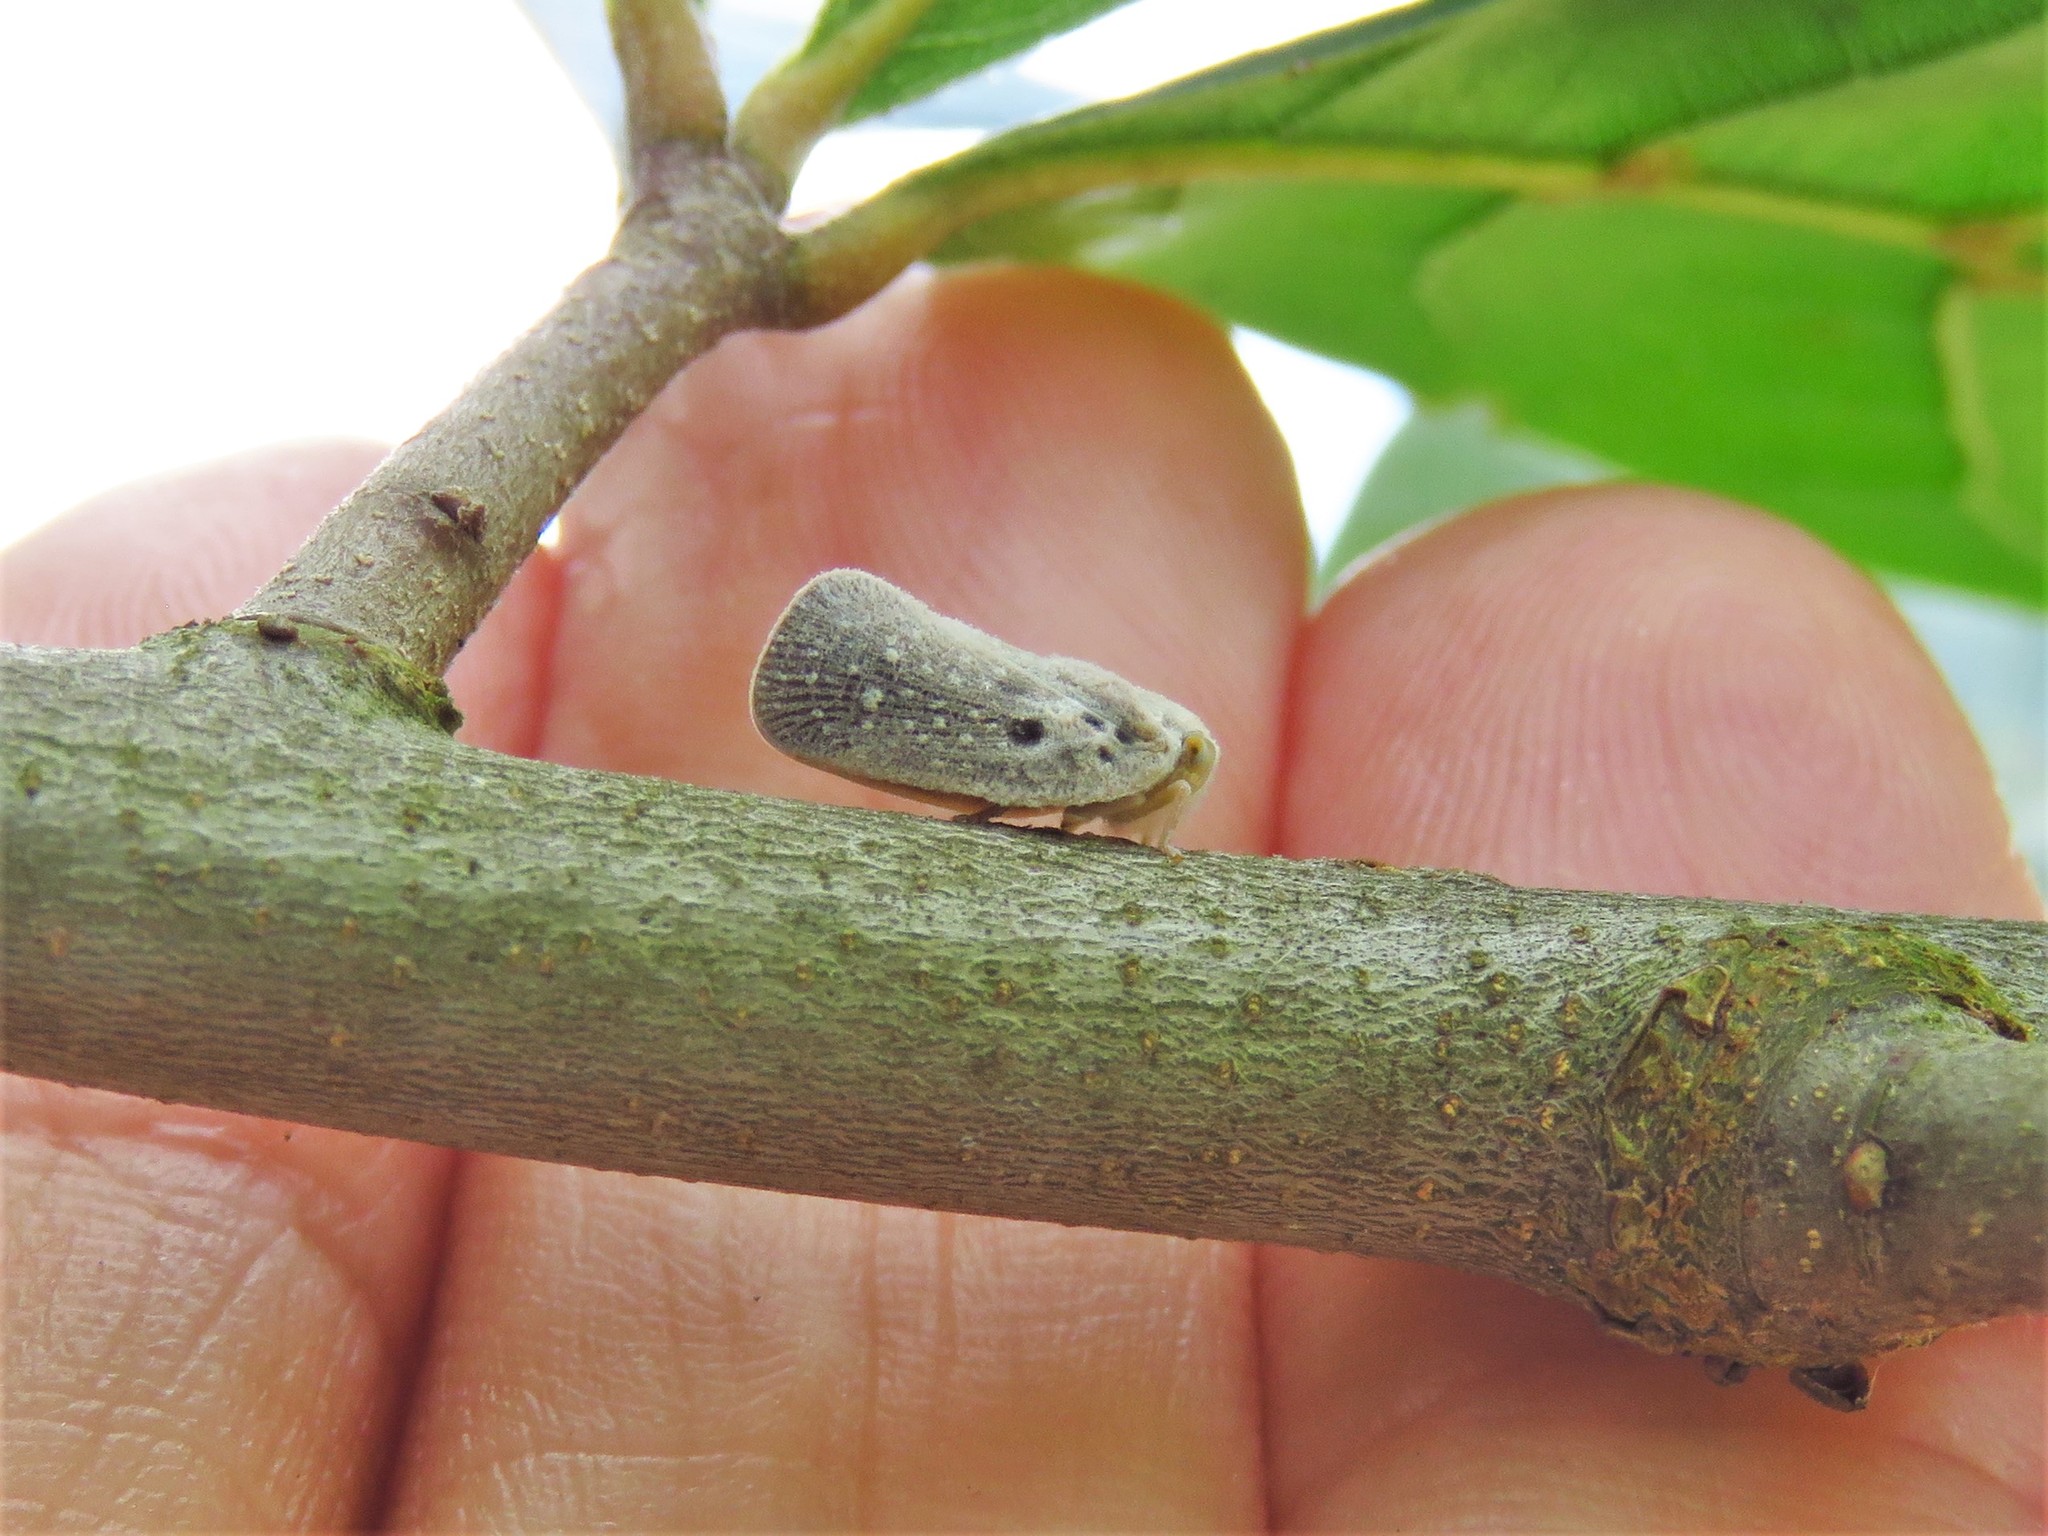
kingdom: Animalia
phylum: Arthropoda
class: Insecta
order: Hemiptera
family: Flatidae
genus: Metcalfa
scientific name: Metcalfa pruinosa
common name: Citrus flatid planthopper
